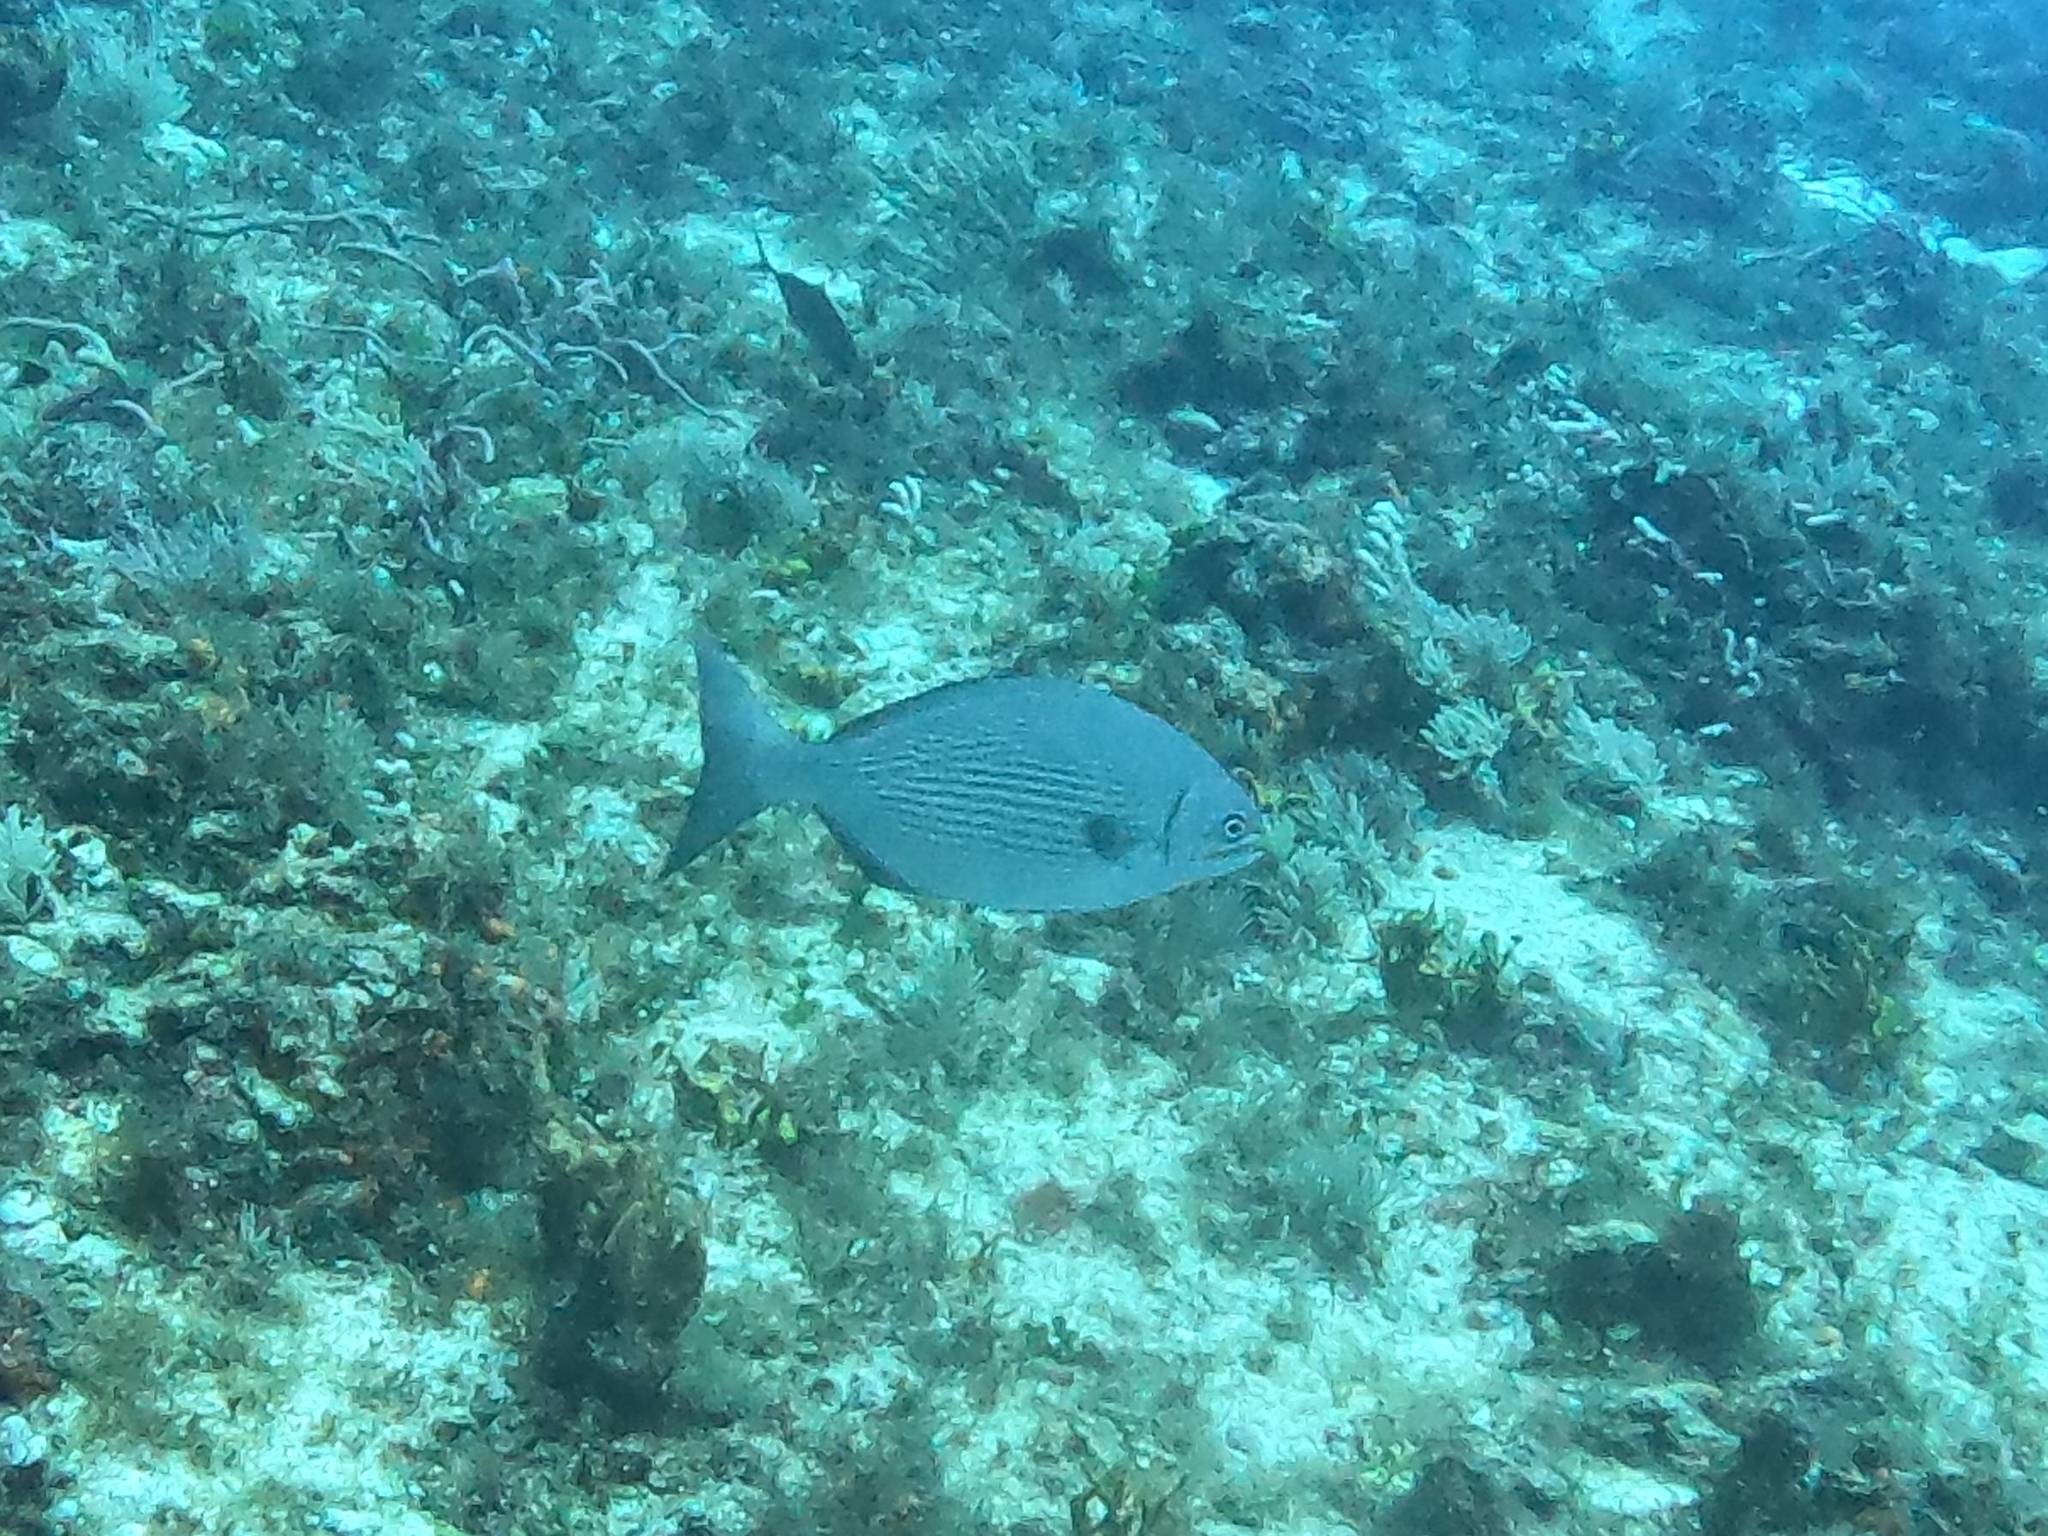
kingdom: Animalia
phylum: Chordata
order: Perciformes
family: Kyphosidae
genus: Kyphosus
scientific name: Kyphosus vaigiensis
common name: Brassy chub
